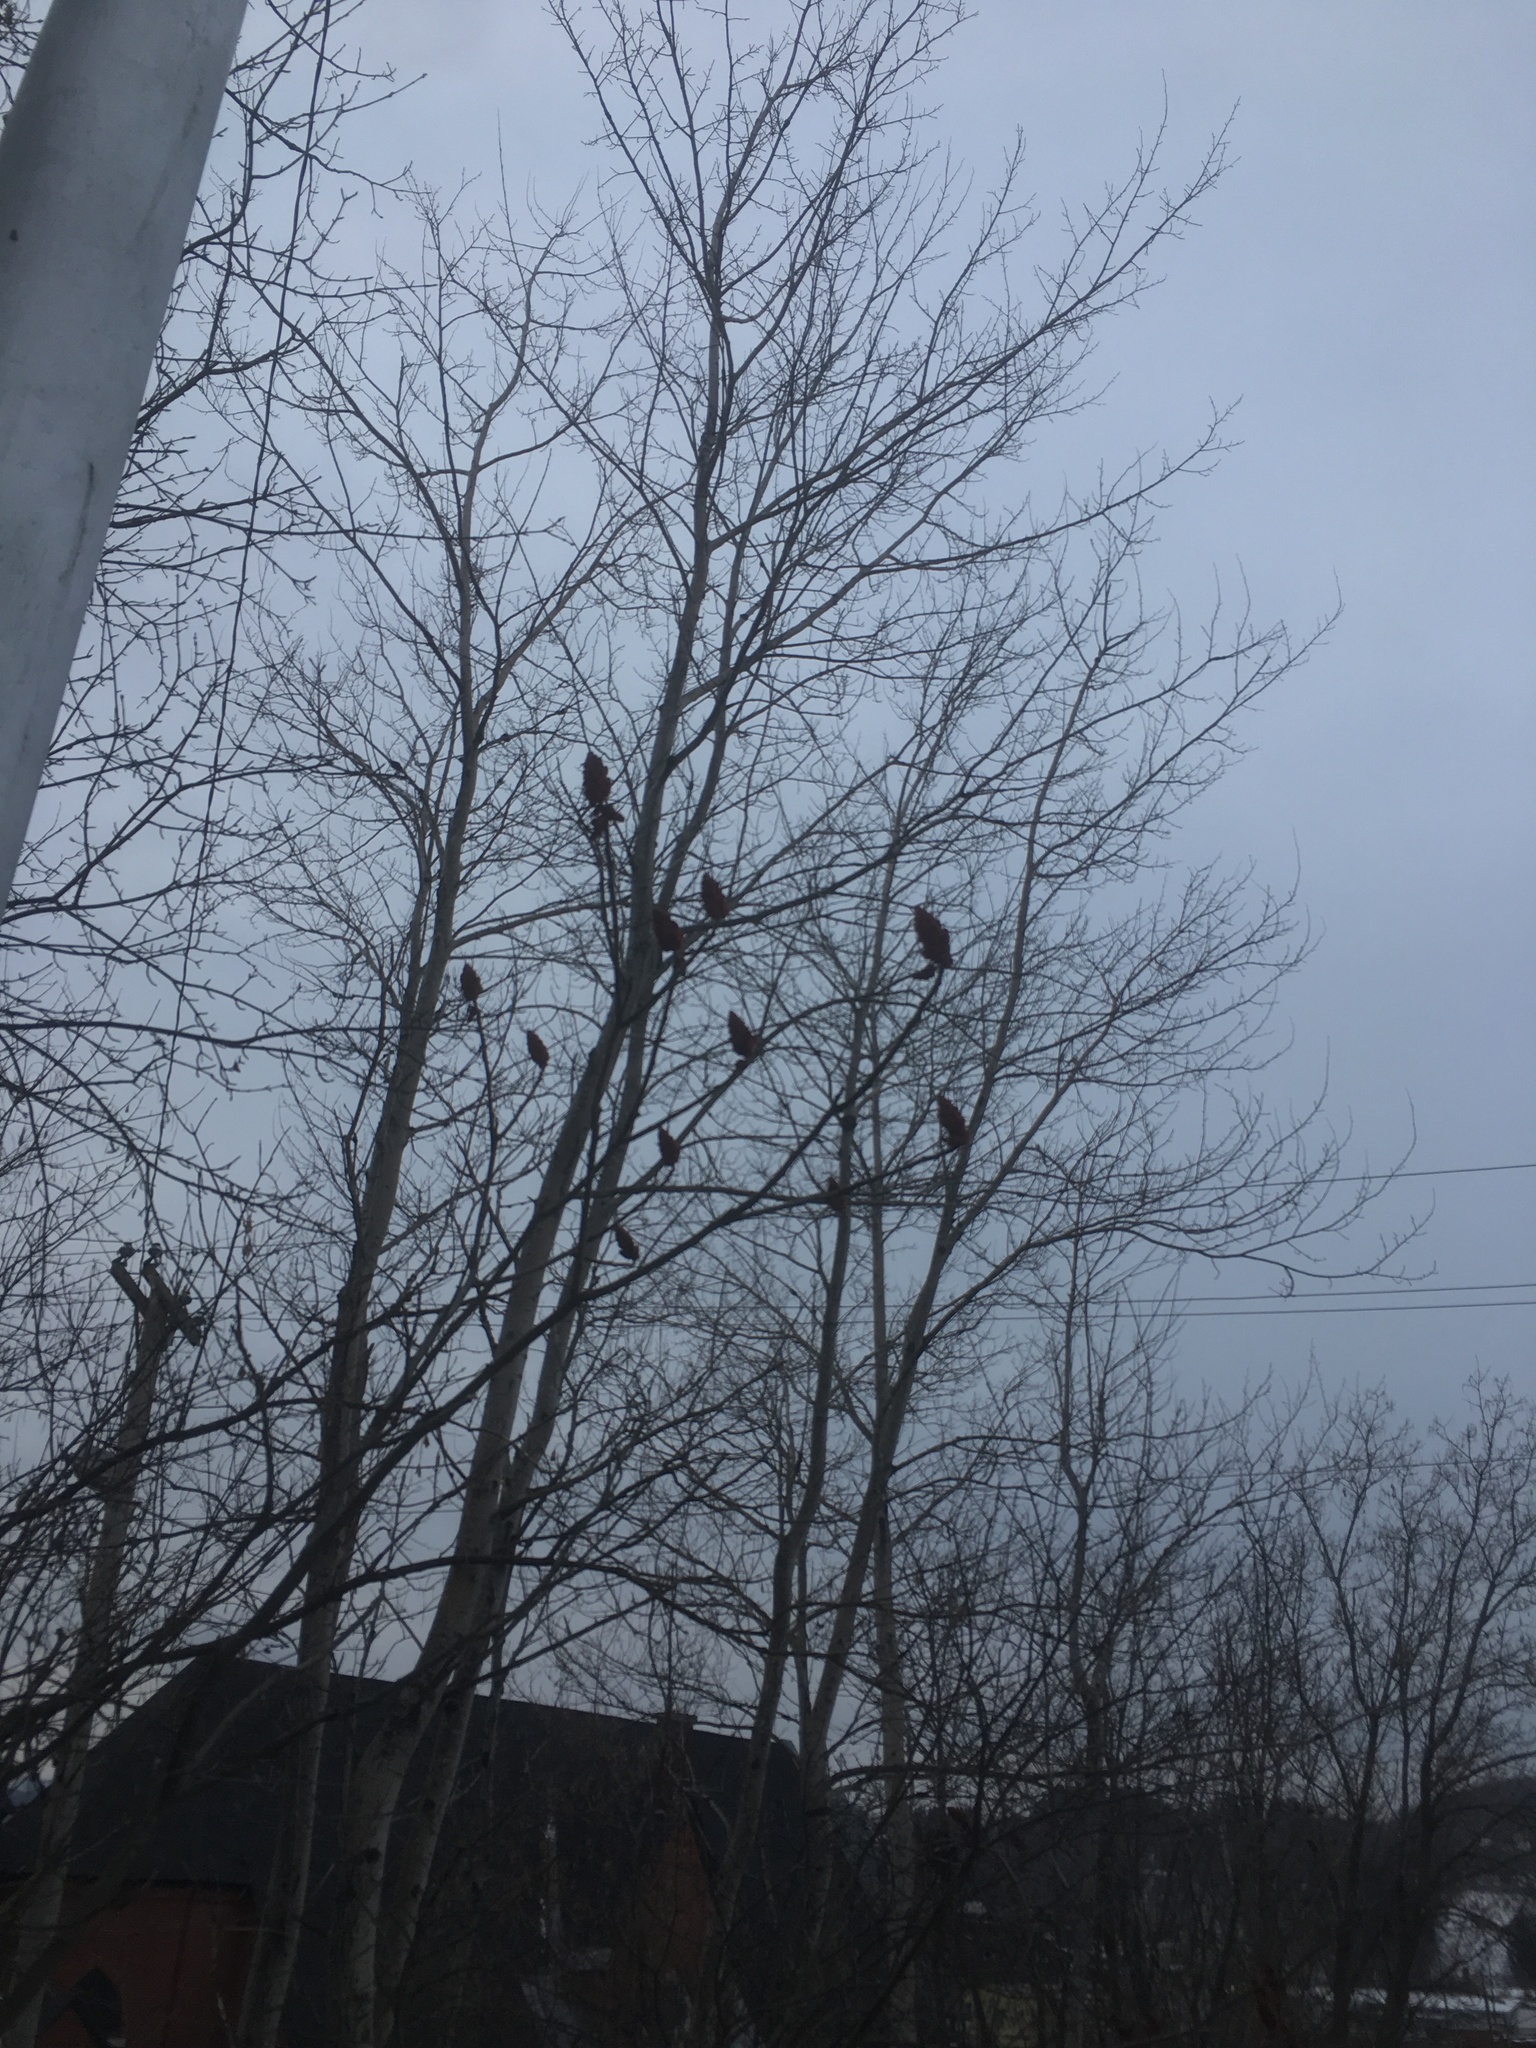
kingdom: Plantae
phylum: Tracheophyta
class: Magnoliopsida
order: Sapindales
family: Anacardiaceae
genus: Rhus
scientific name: Rhus typhina
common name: Staghorn sumac
